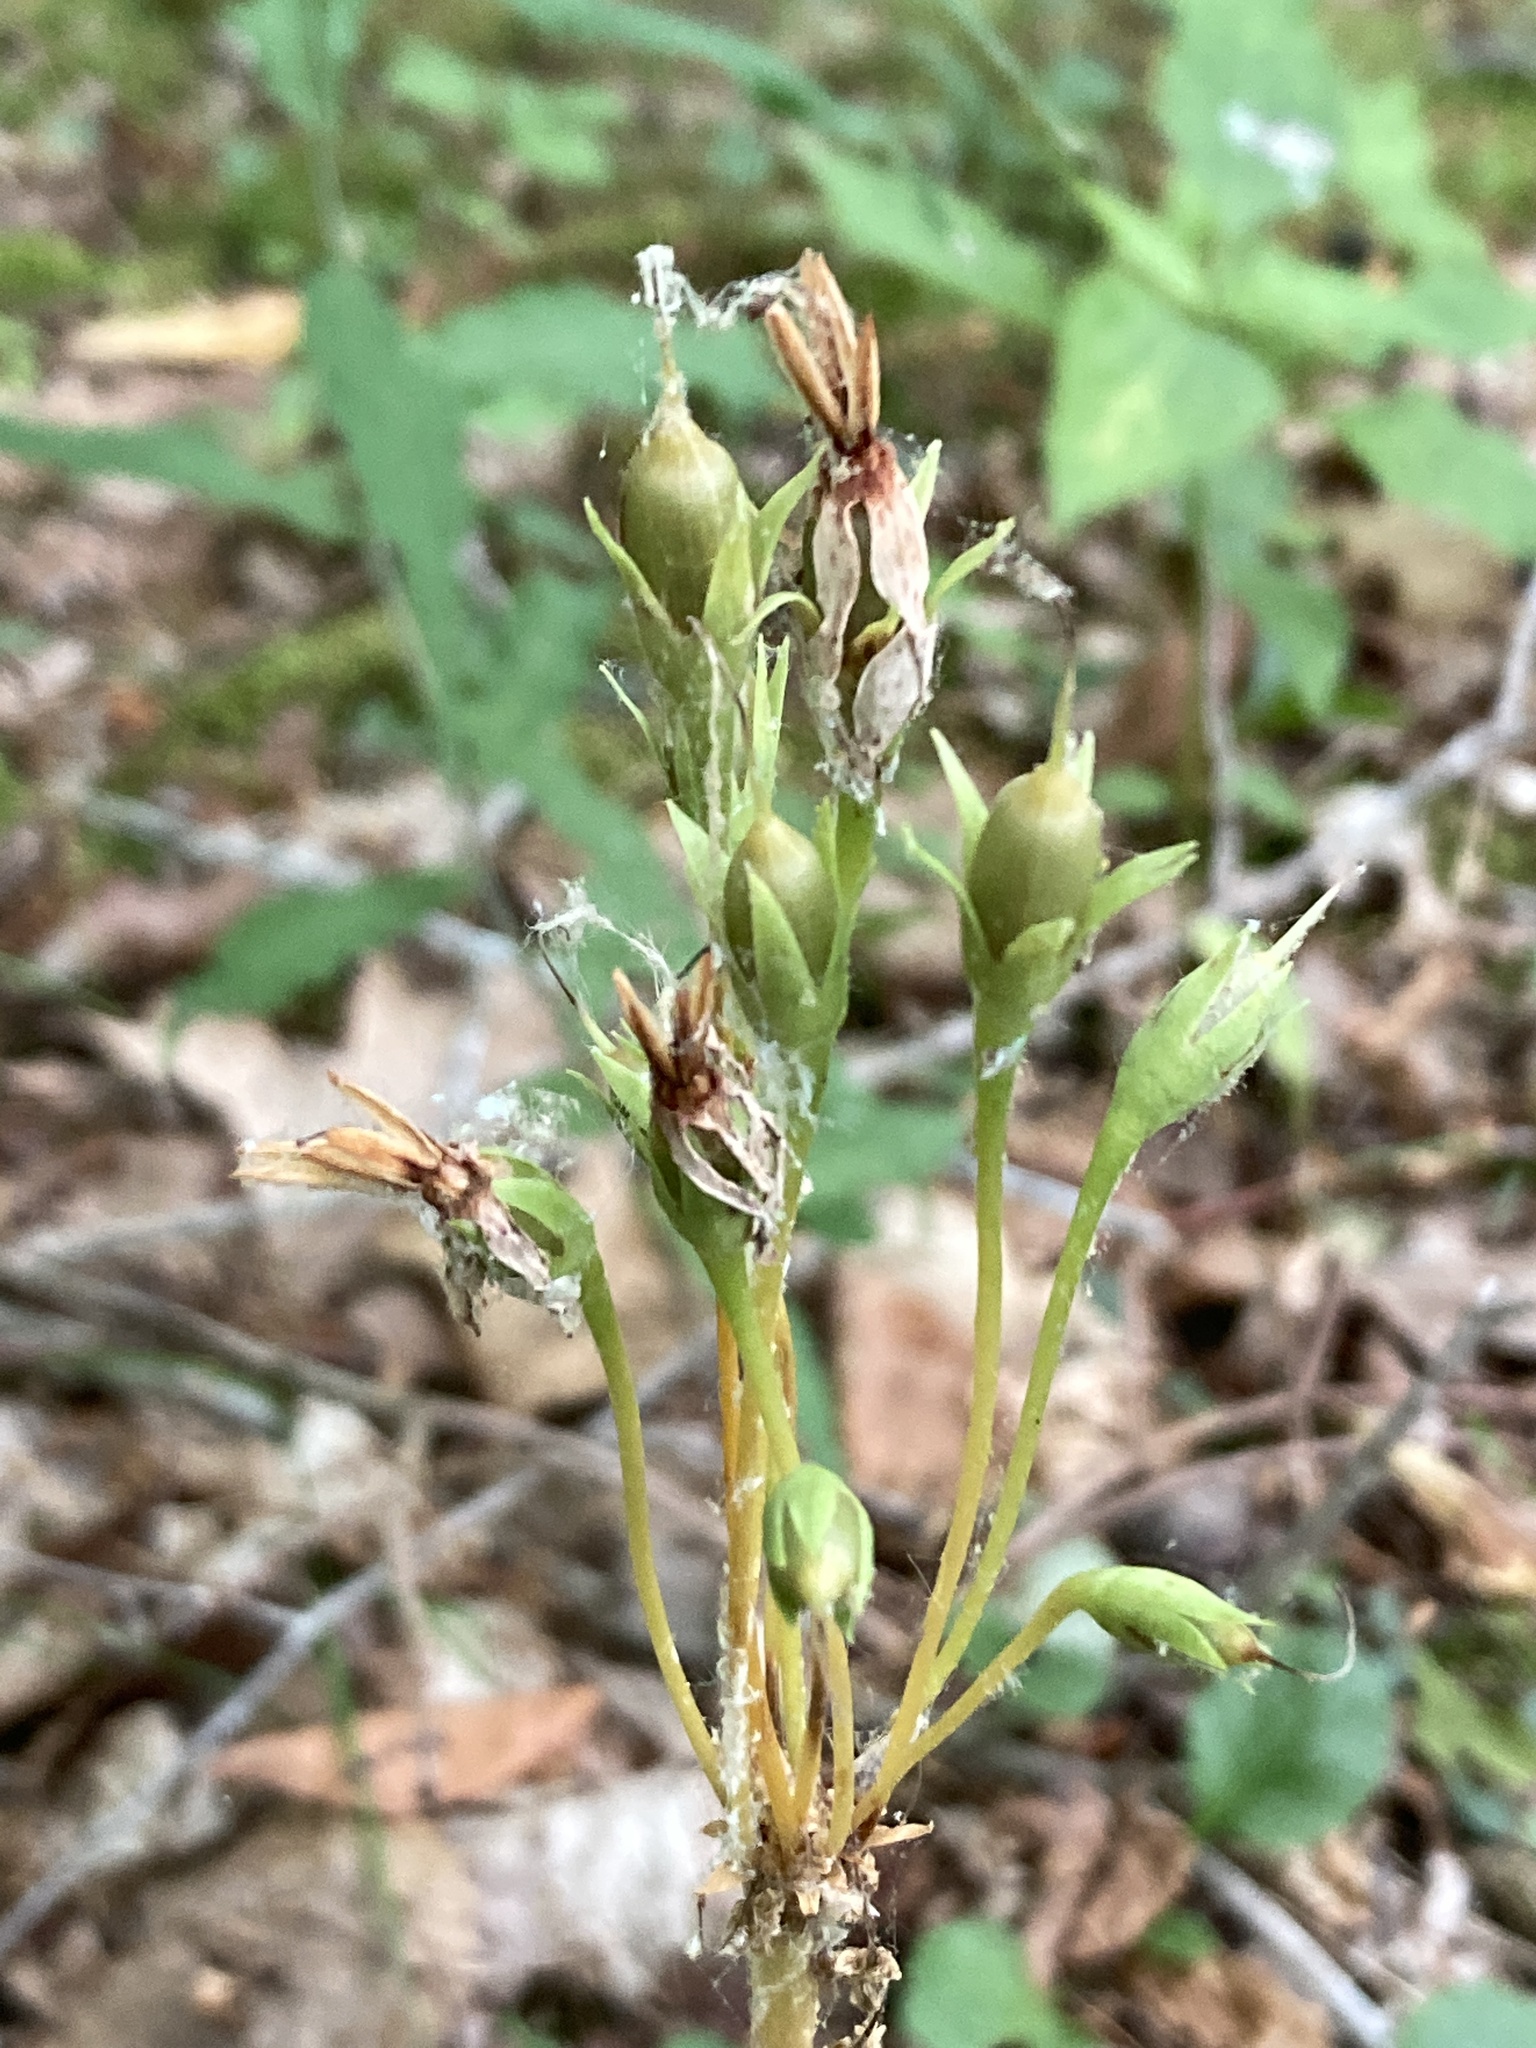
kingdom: Plantae
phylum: Tracheophyta
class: Magnoliopsida
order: Ericales
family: Primulaceae
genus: Dodecatheon
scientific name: Dodecatheon meadia
